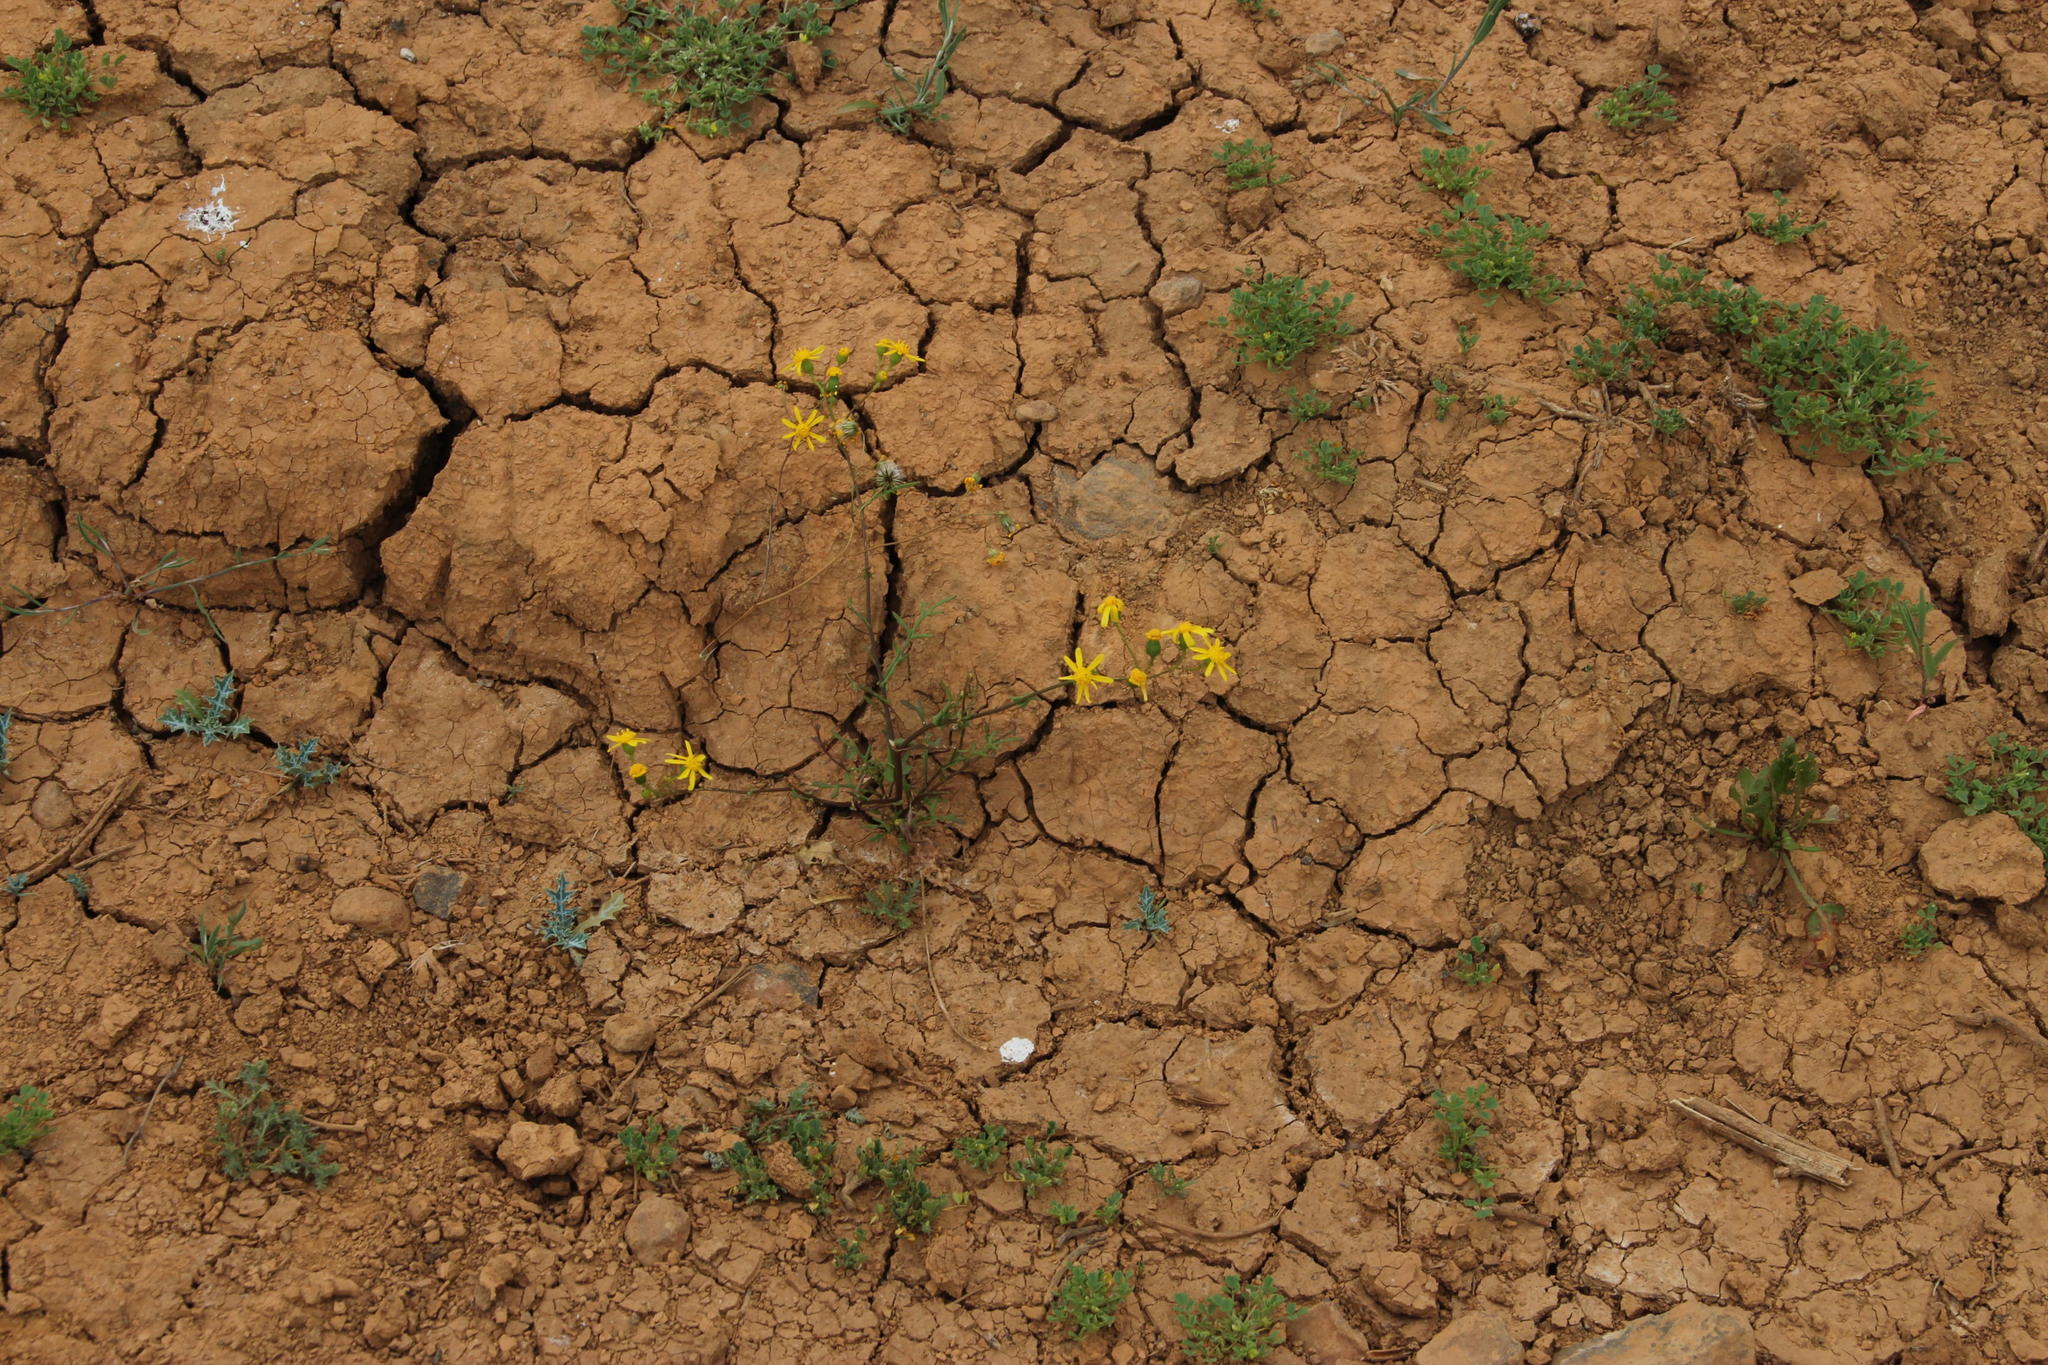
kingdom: Plantae
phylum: Tracheophyta
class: Magnoliopsida
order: Asterales
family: Asteraceae
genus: Senecio
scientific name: Senecio cardaminifolius
